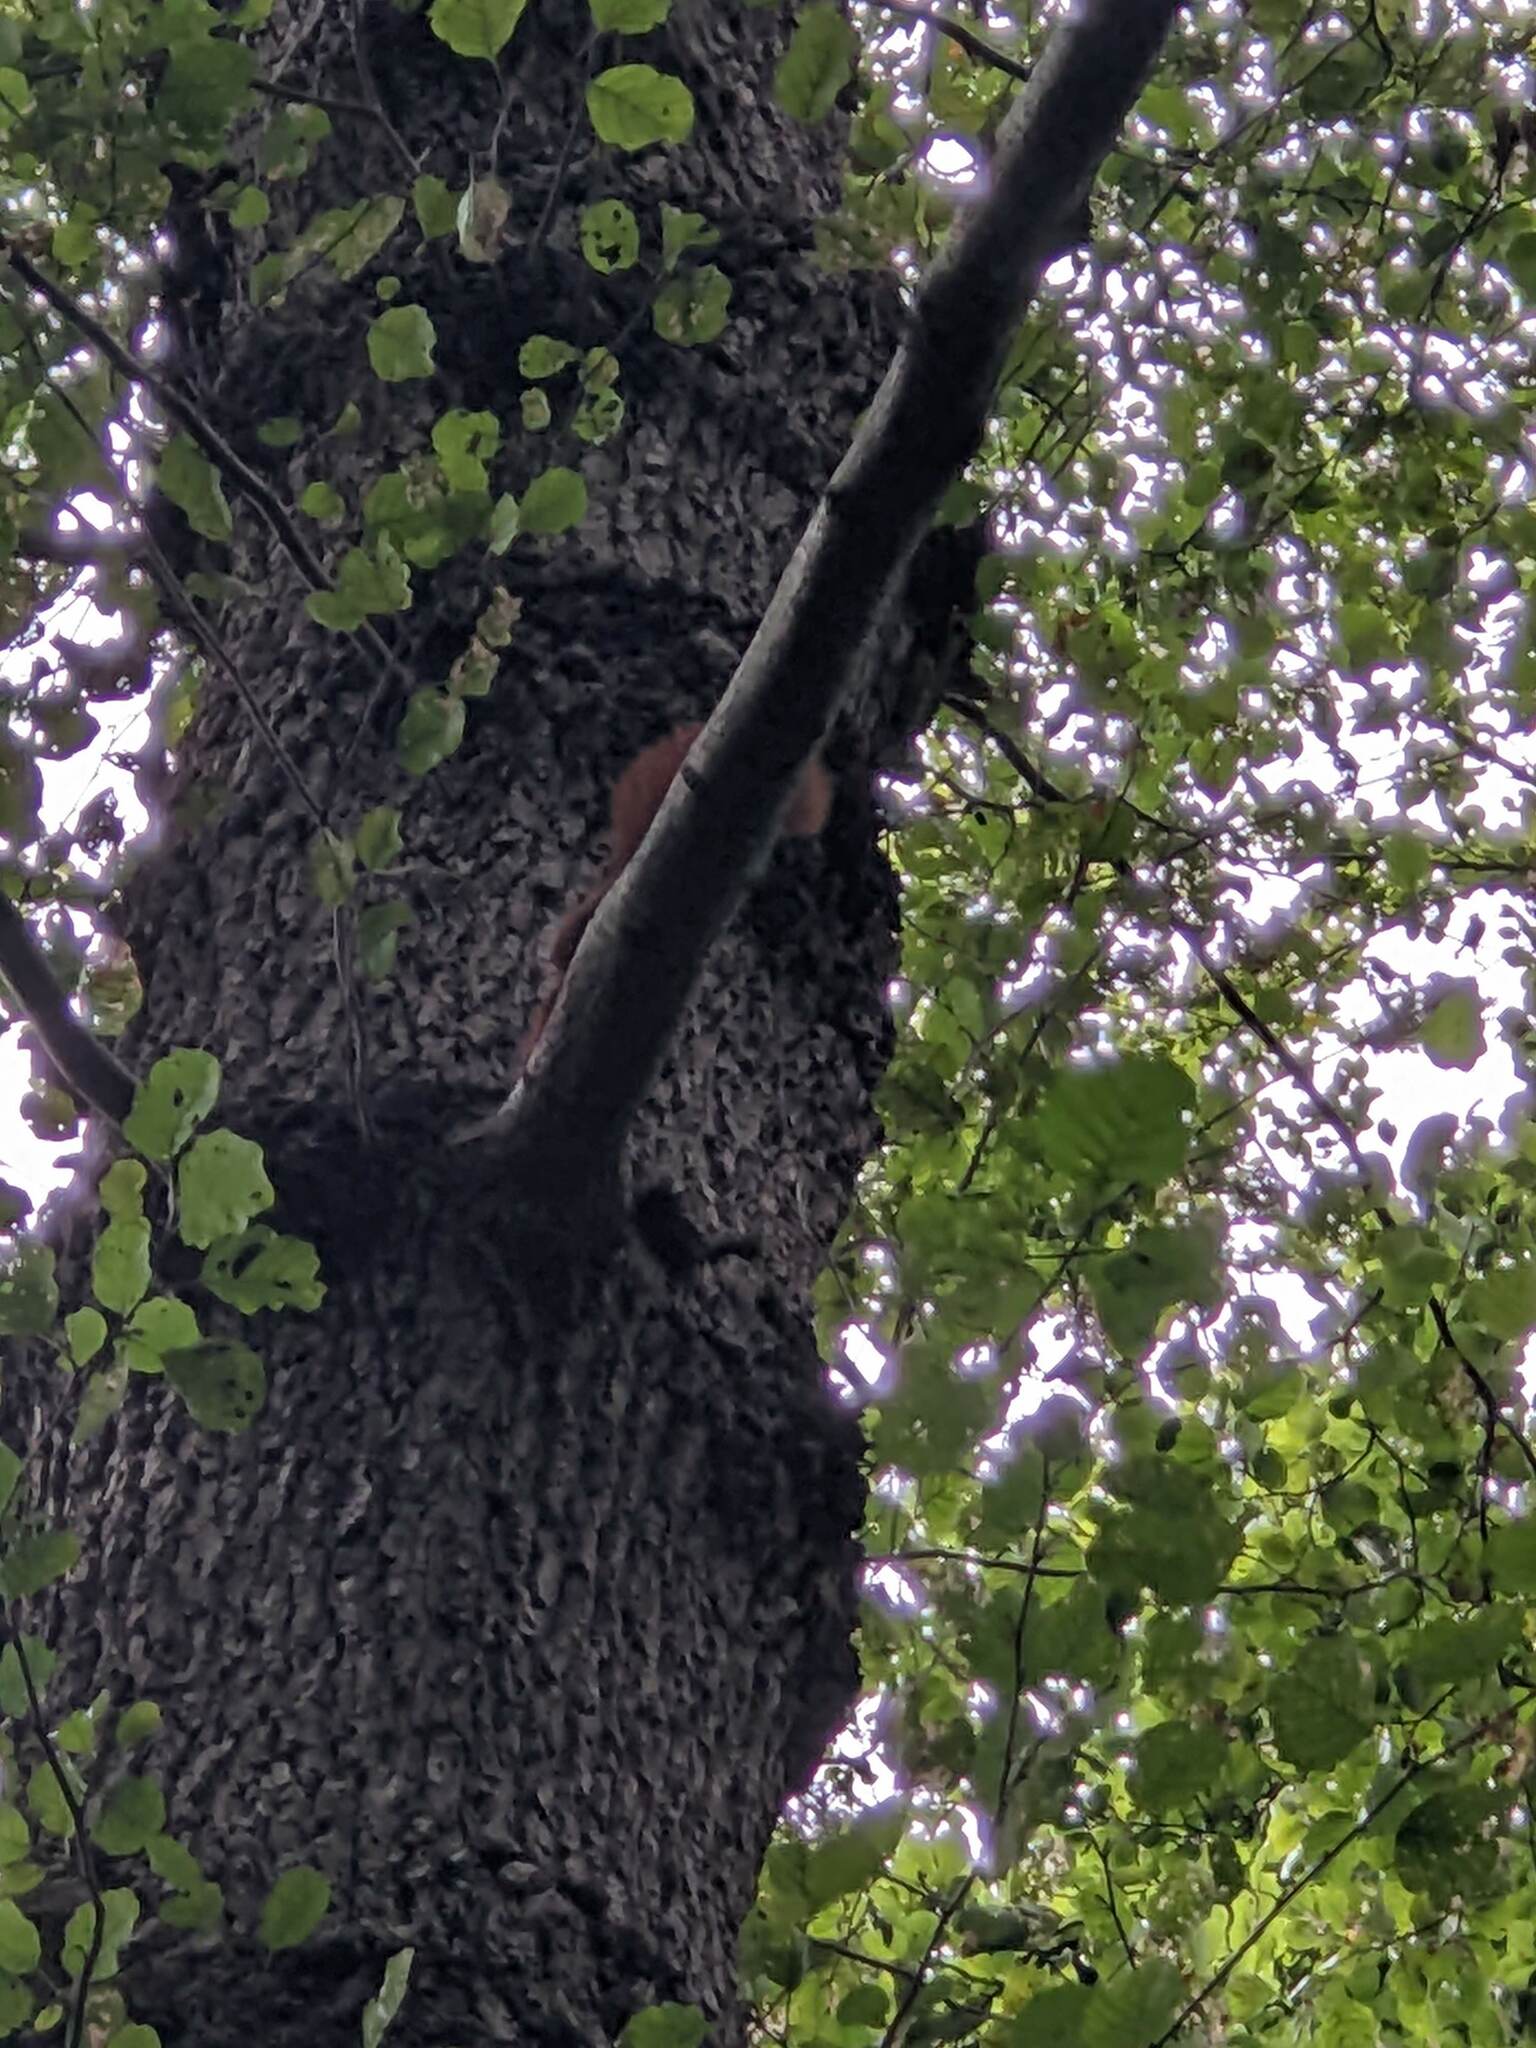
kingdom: Animalia
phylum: Chordata
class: Mammalia
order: Rodentia
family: Sciuridae
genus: Sciurus
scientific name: Sciurus vulgaris
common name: Eurasian red squirrel
